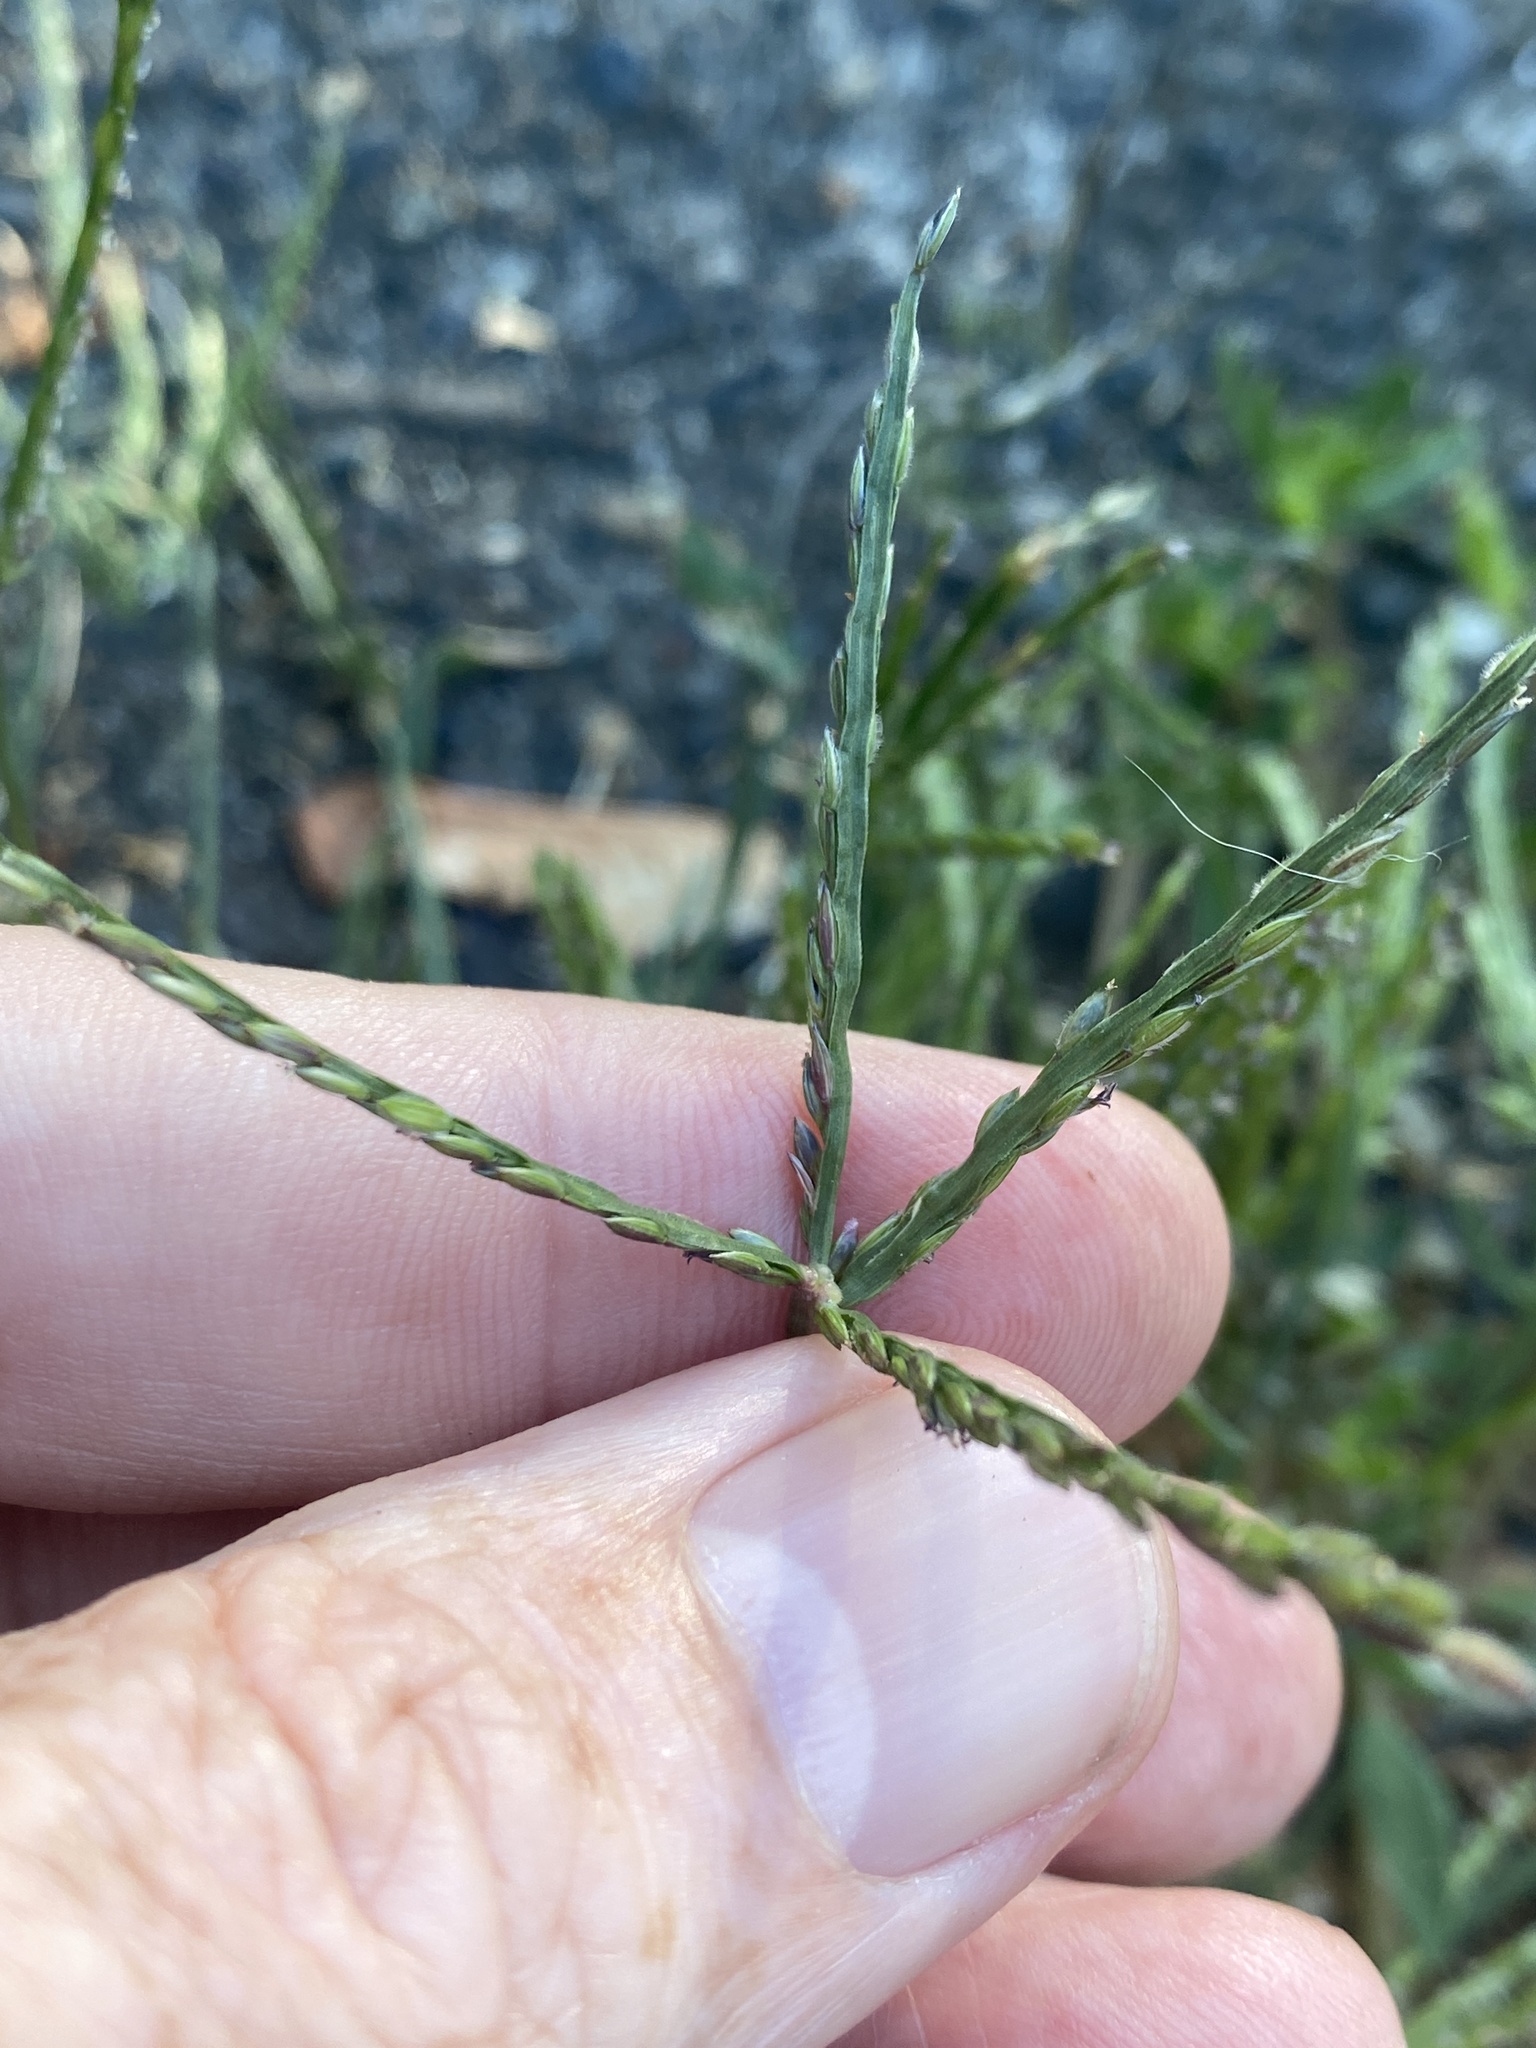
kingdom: Plantae
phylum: Tracheophyta
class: Liliopsida
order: Poales
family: Poaceae
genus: Digitaria
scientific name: Digitaria sanguinalis
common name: Hairy crabgrass
